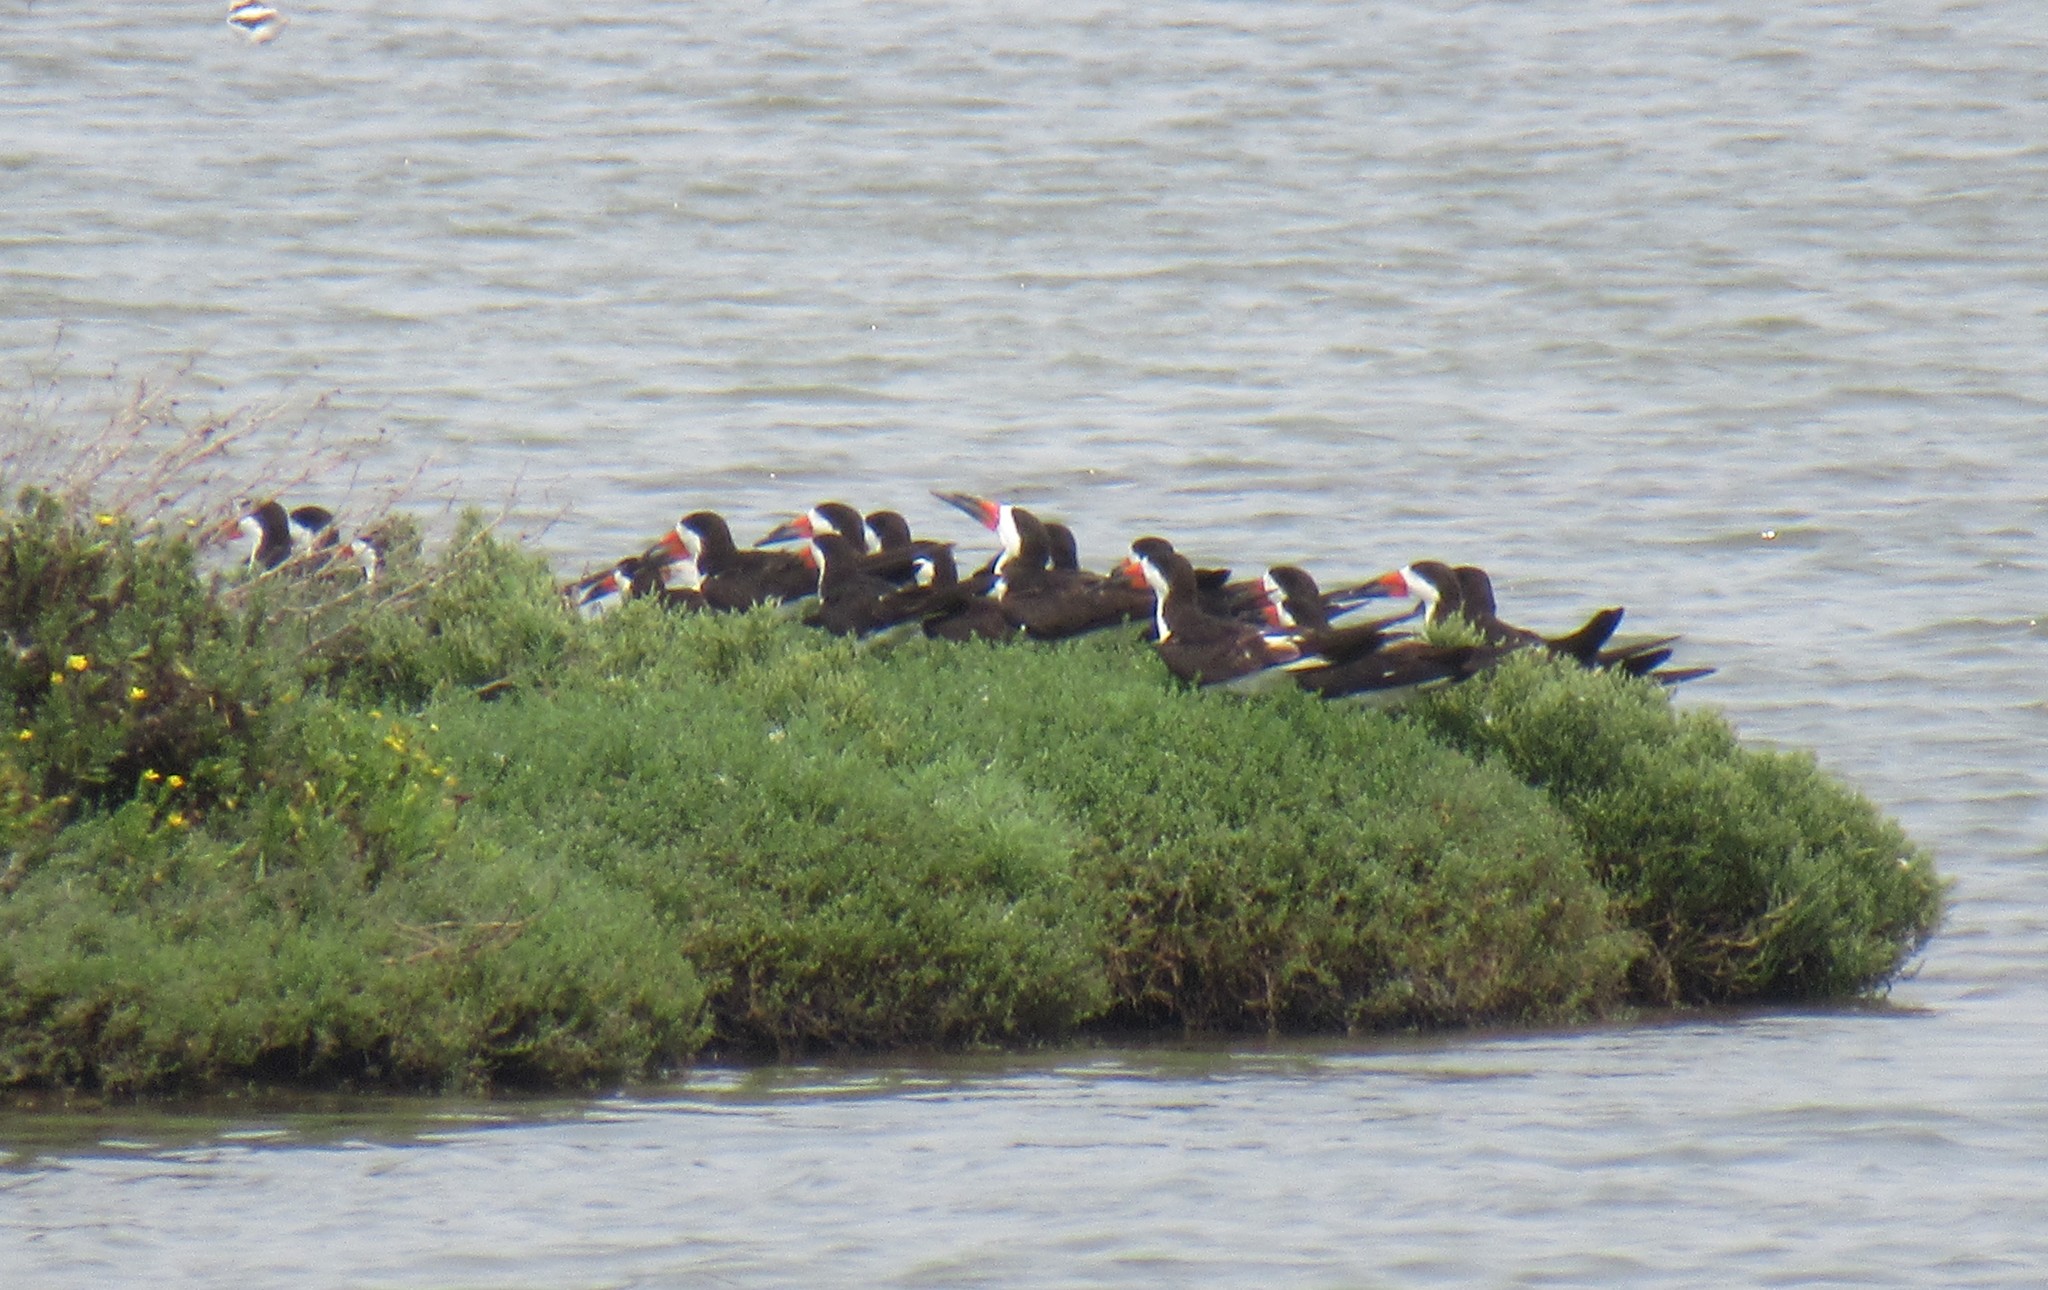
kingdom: Animalia
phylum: Chordata
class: Aves
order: Charadriiformes
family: Laridae
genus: Rynchops
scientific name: Rynchops niger
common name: Black skimmer
